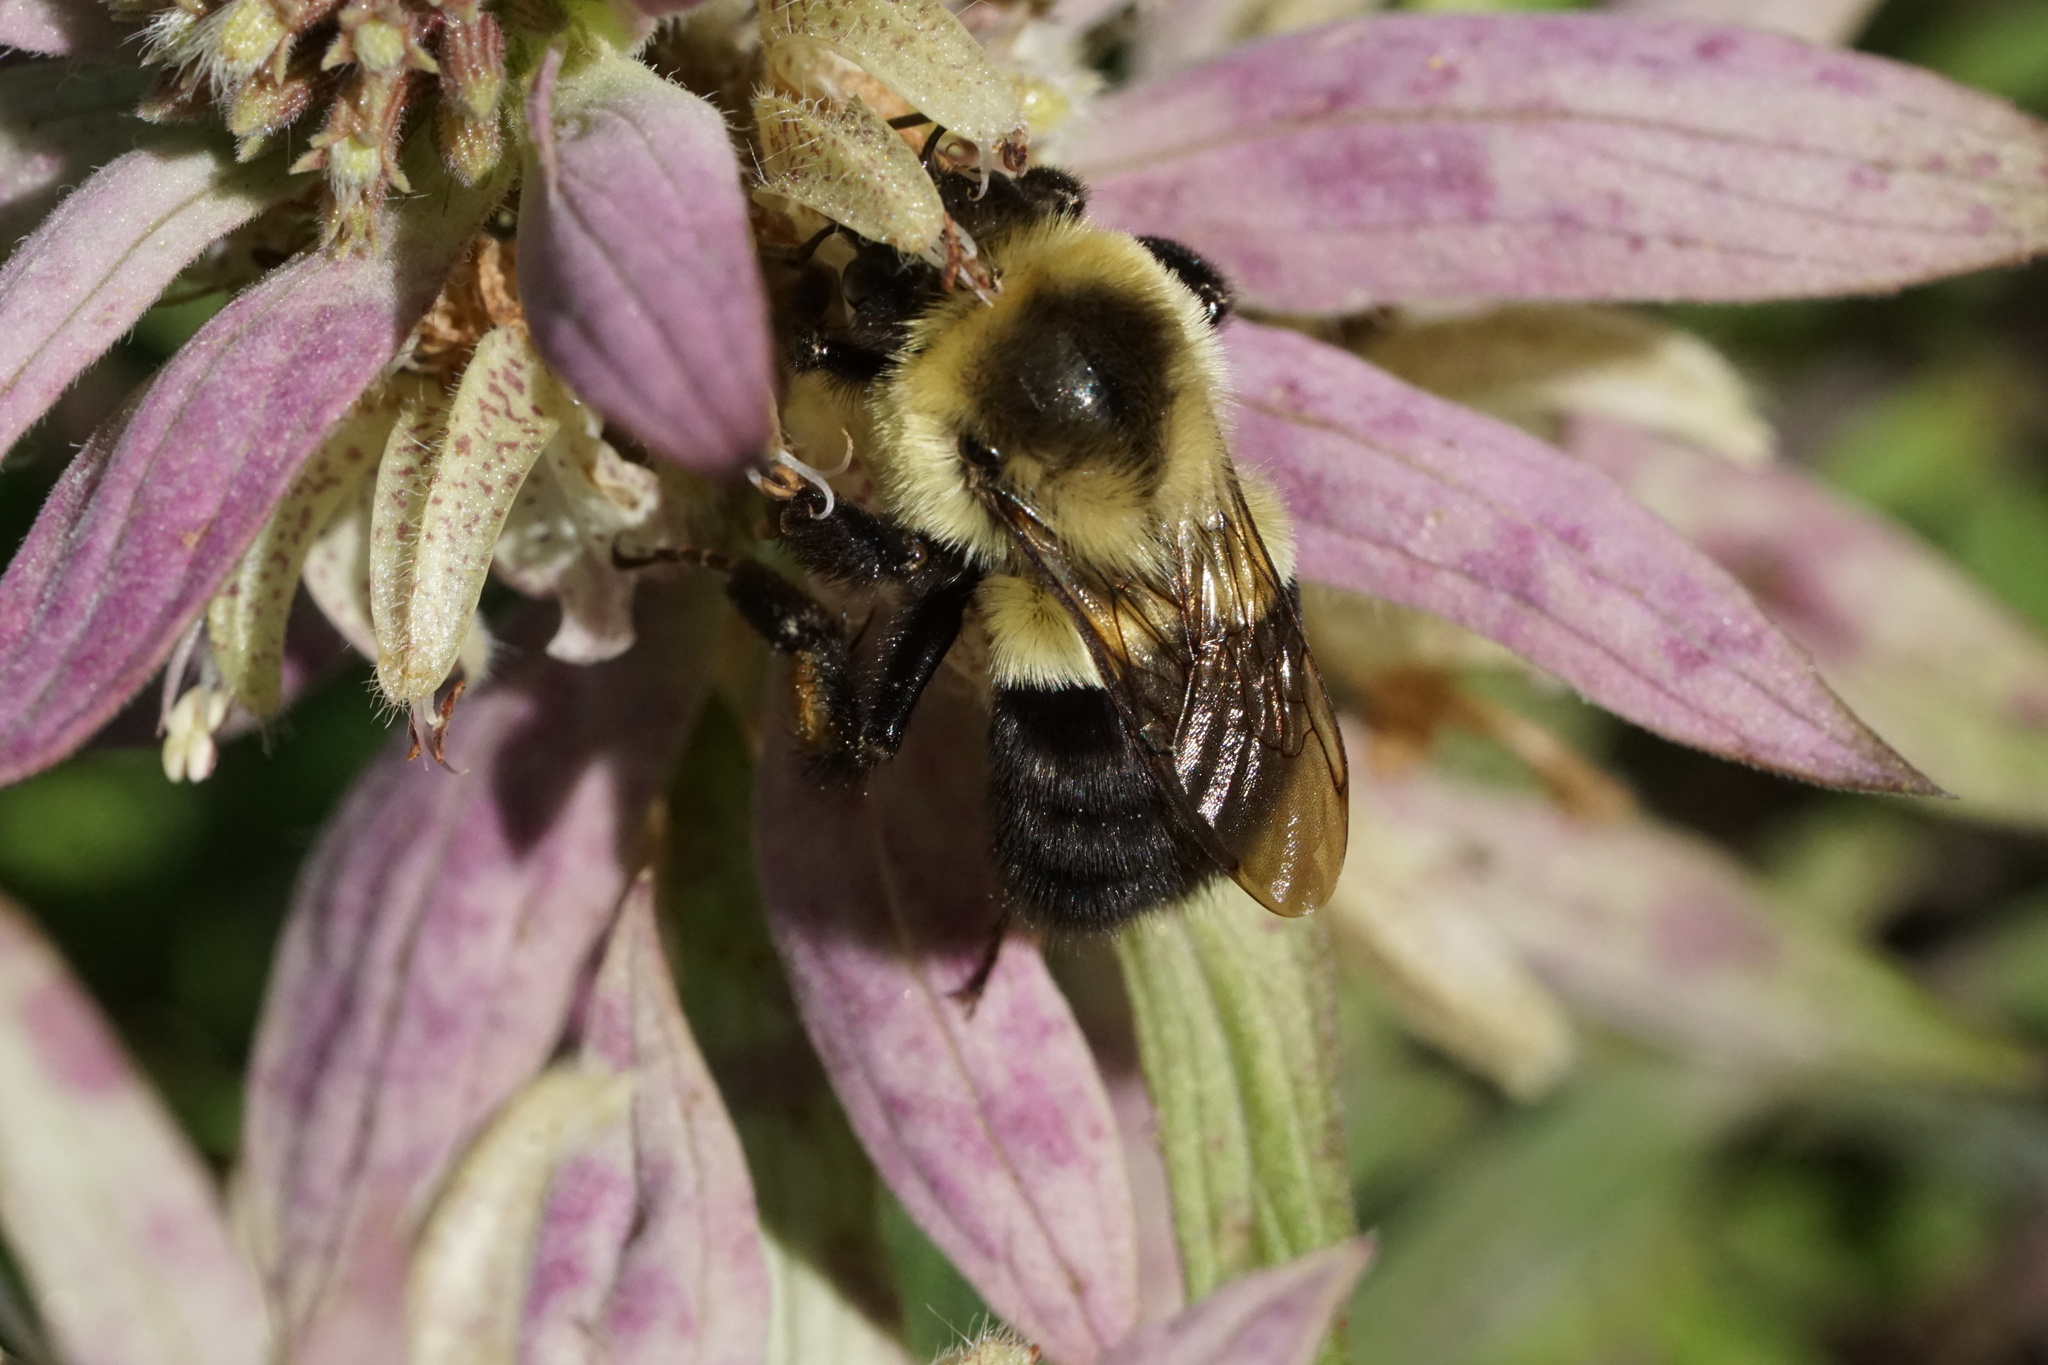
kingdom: Animalia
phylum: Arthropoda
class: Insecta
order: Hymenoptera
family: Apidae
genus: Bombus
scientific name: Bombus impatiens
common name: Common eastern bumble bee
